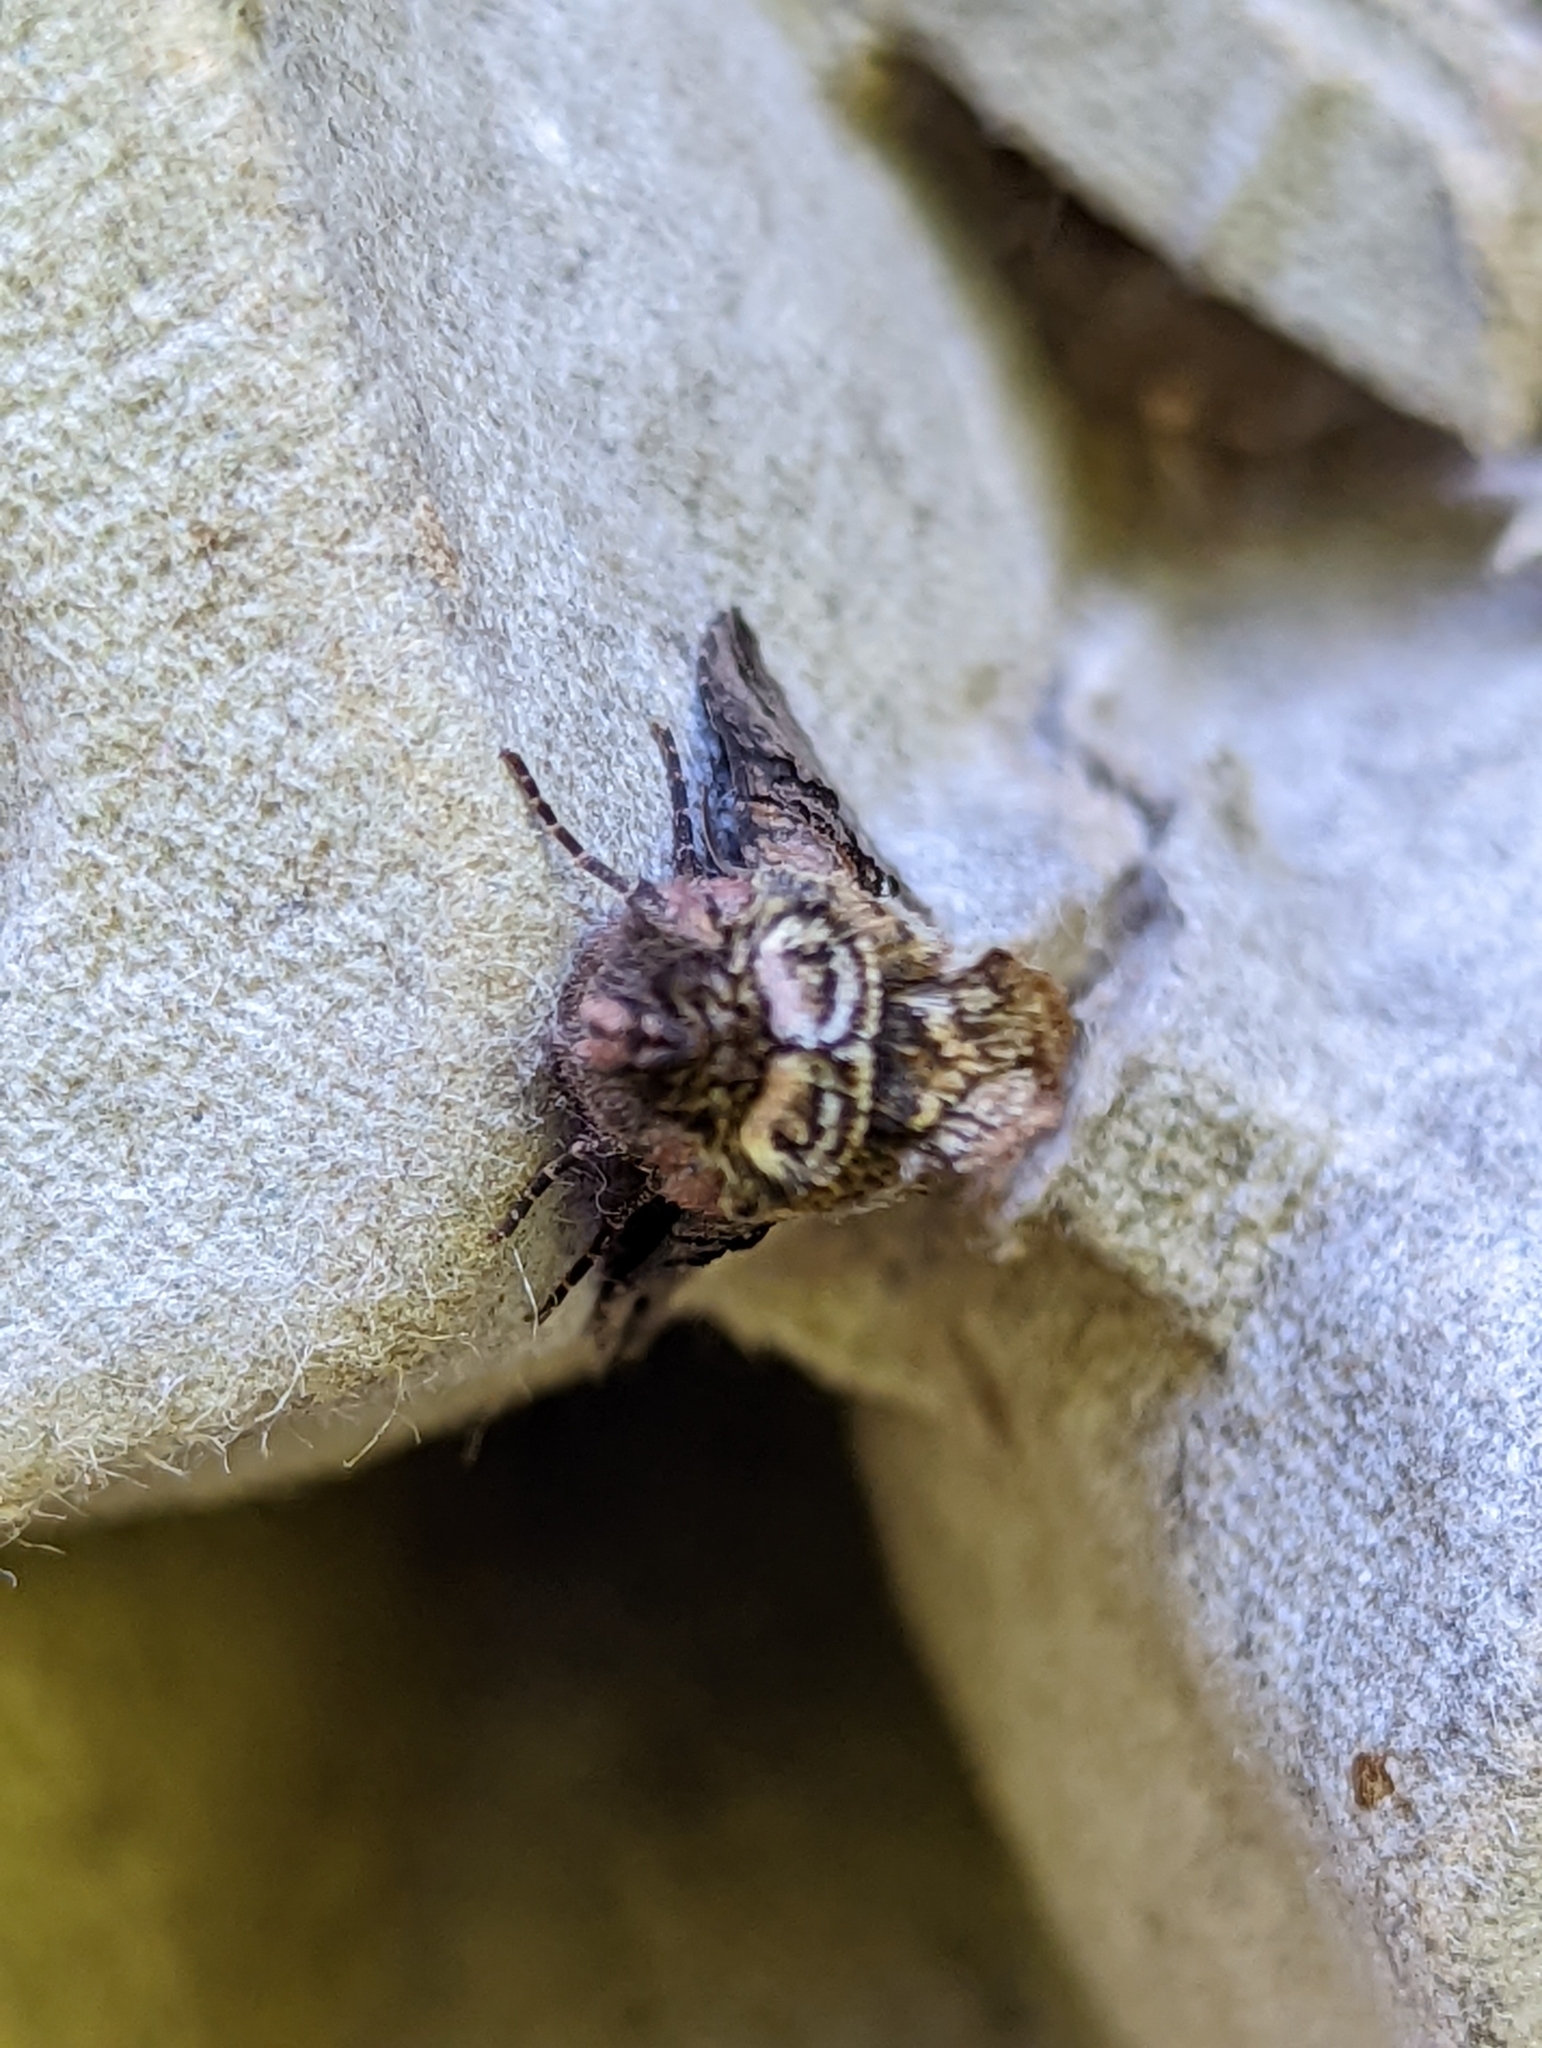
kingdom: Animalia
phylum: Arthropoda
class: Insecta
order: Lepidoptera
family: Noctuidae
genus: Abrostola
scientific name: Abrostola tripartita
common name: Spectacle
